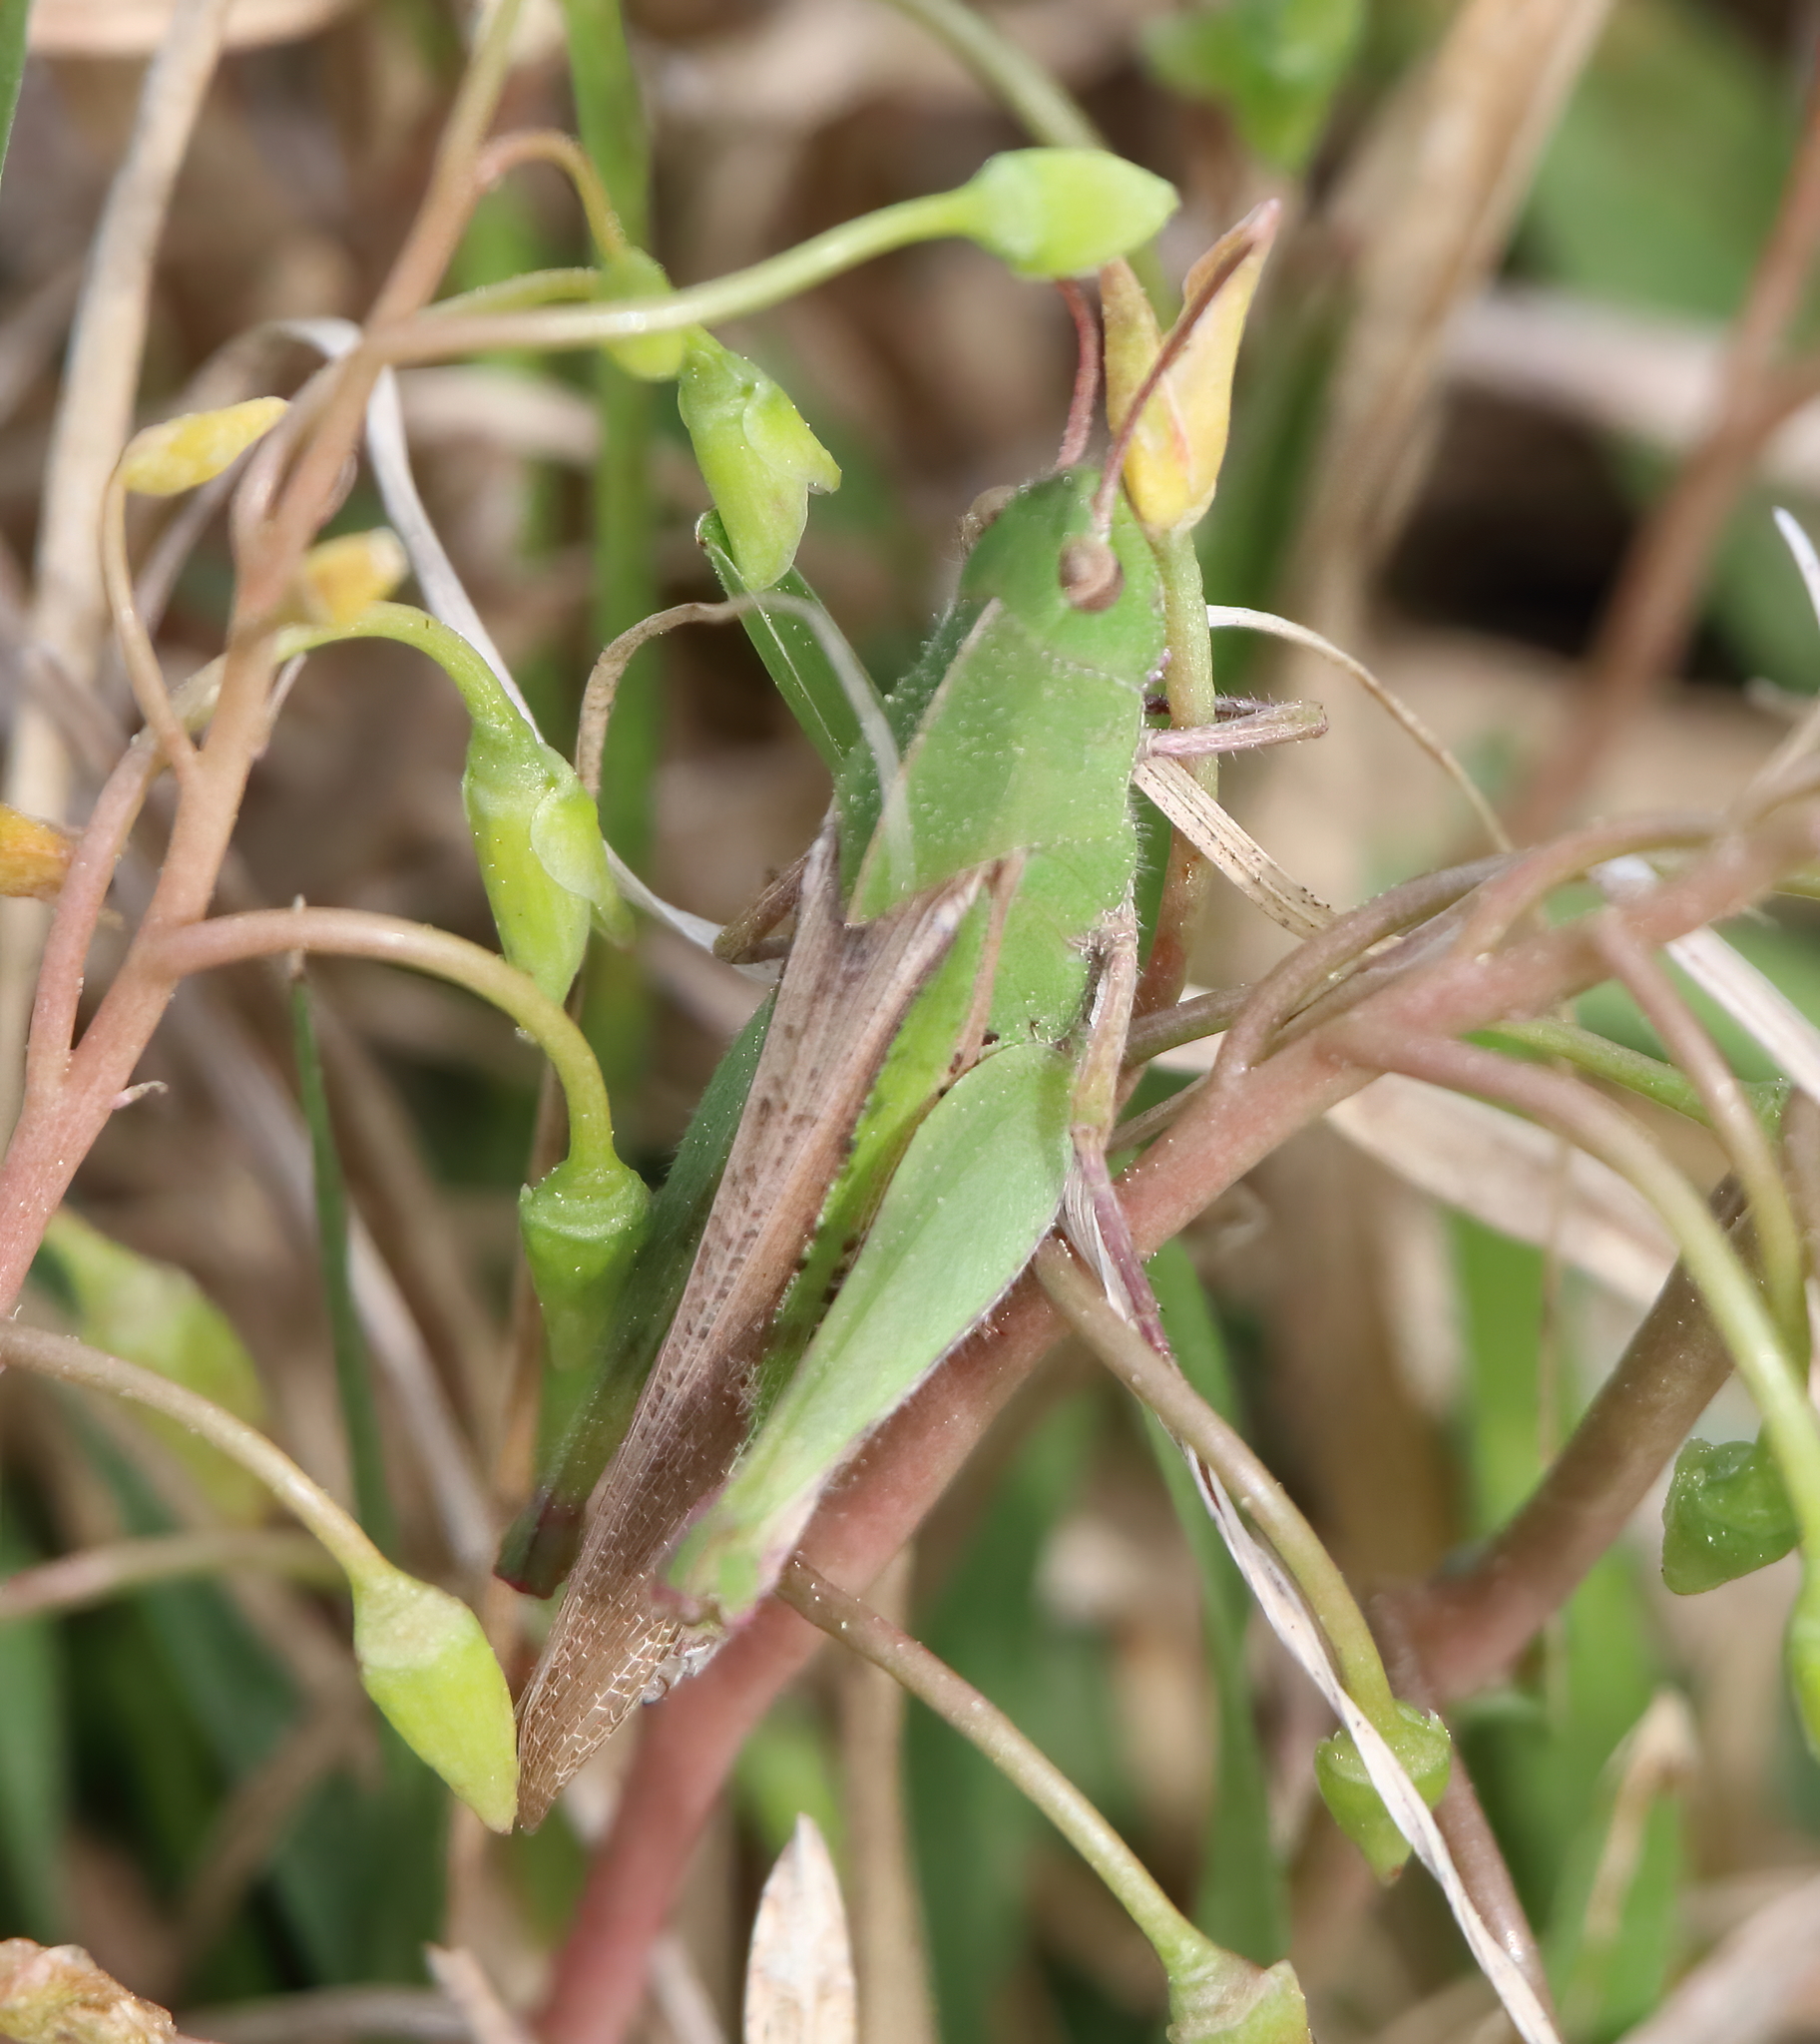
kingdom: Animalia
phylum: Arthropoda
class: Insecta
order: Orthoptera
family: Acrididae
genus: Chortophaga
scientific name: Chortophaga viridifasciata
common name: Green-striped grasshopper
